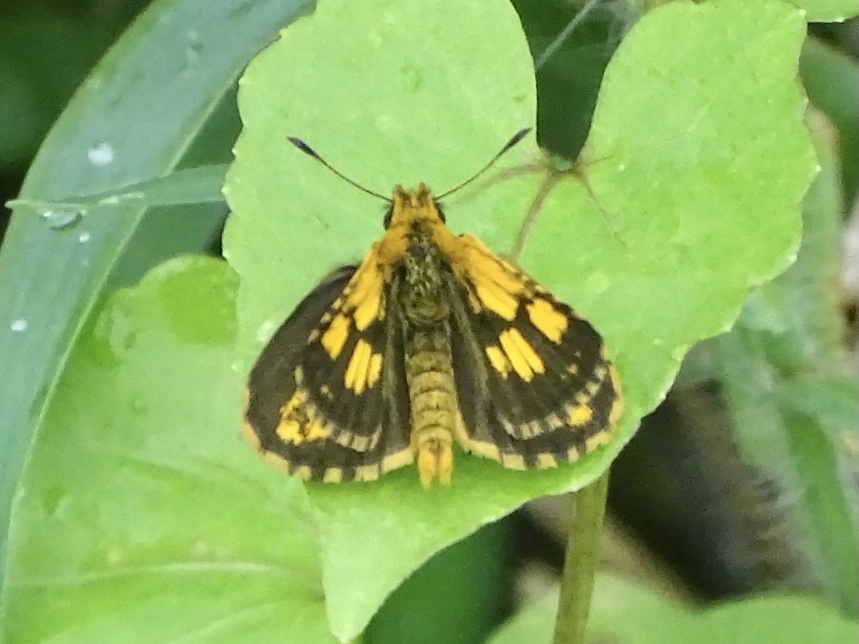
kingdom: Animalia
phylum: Arthropoda
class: Insecta
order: Lepidoptera
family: Hesperiidae
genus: Ampittia
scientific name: Ampittia dioscorides
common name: Common bush hopper
